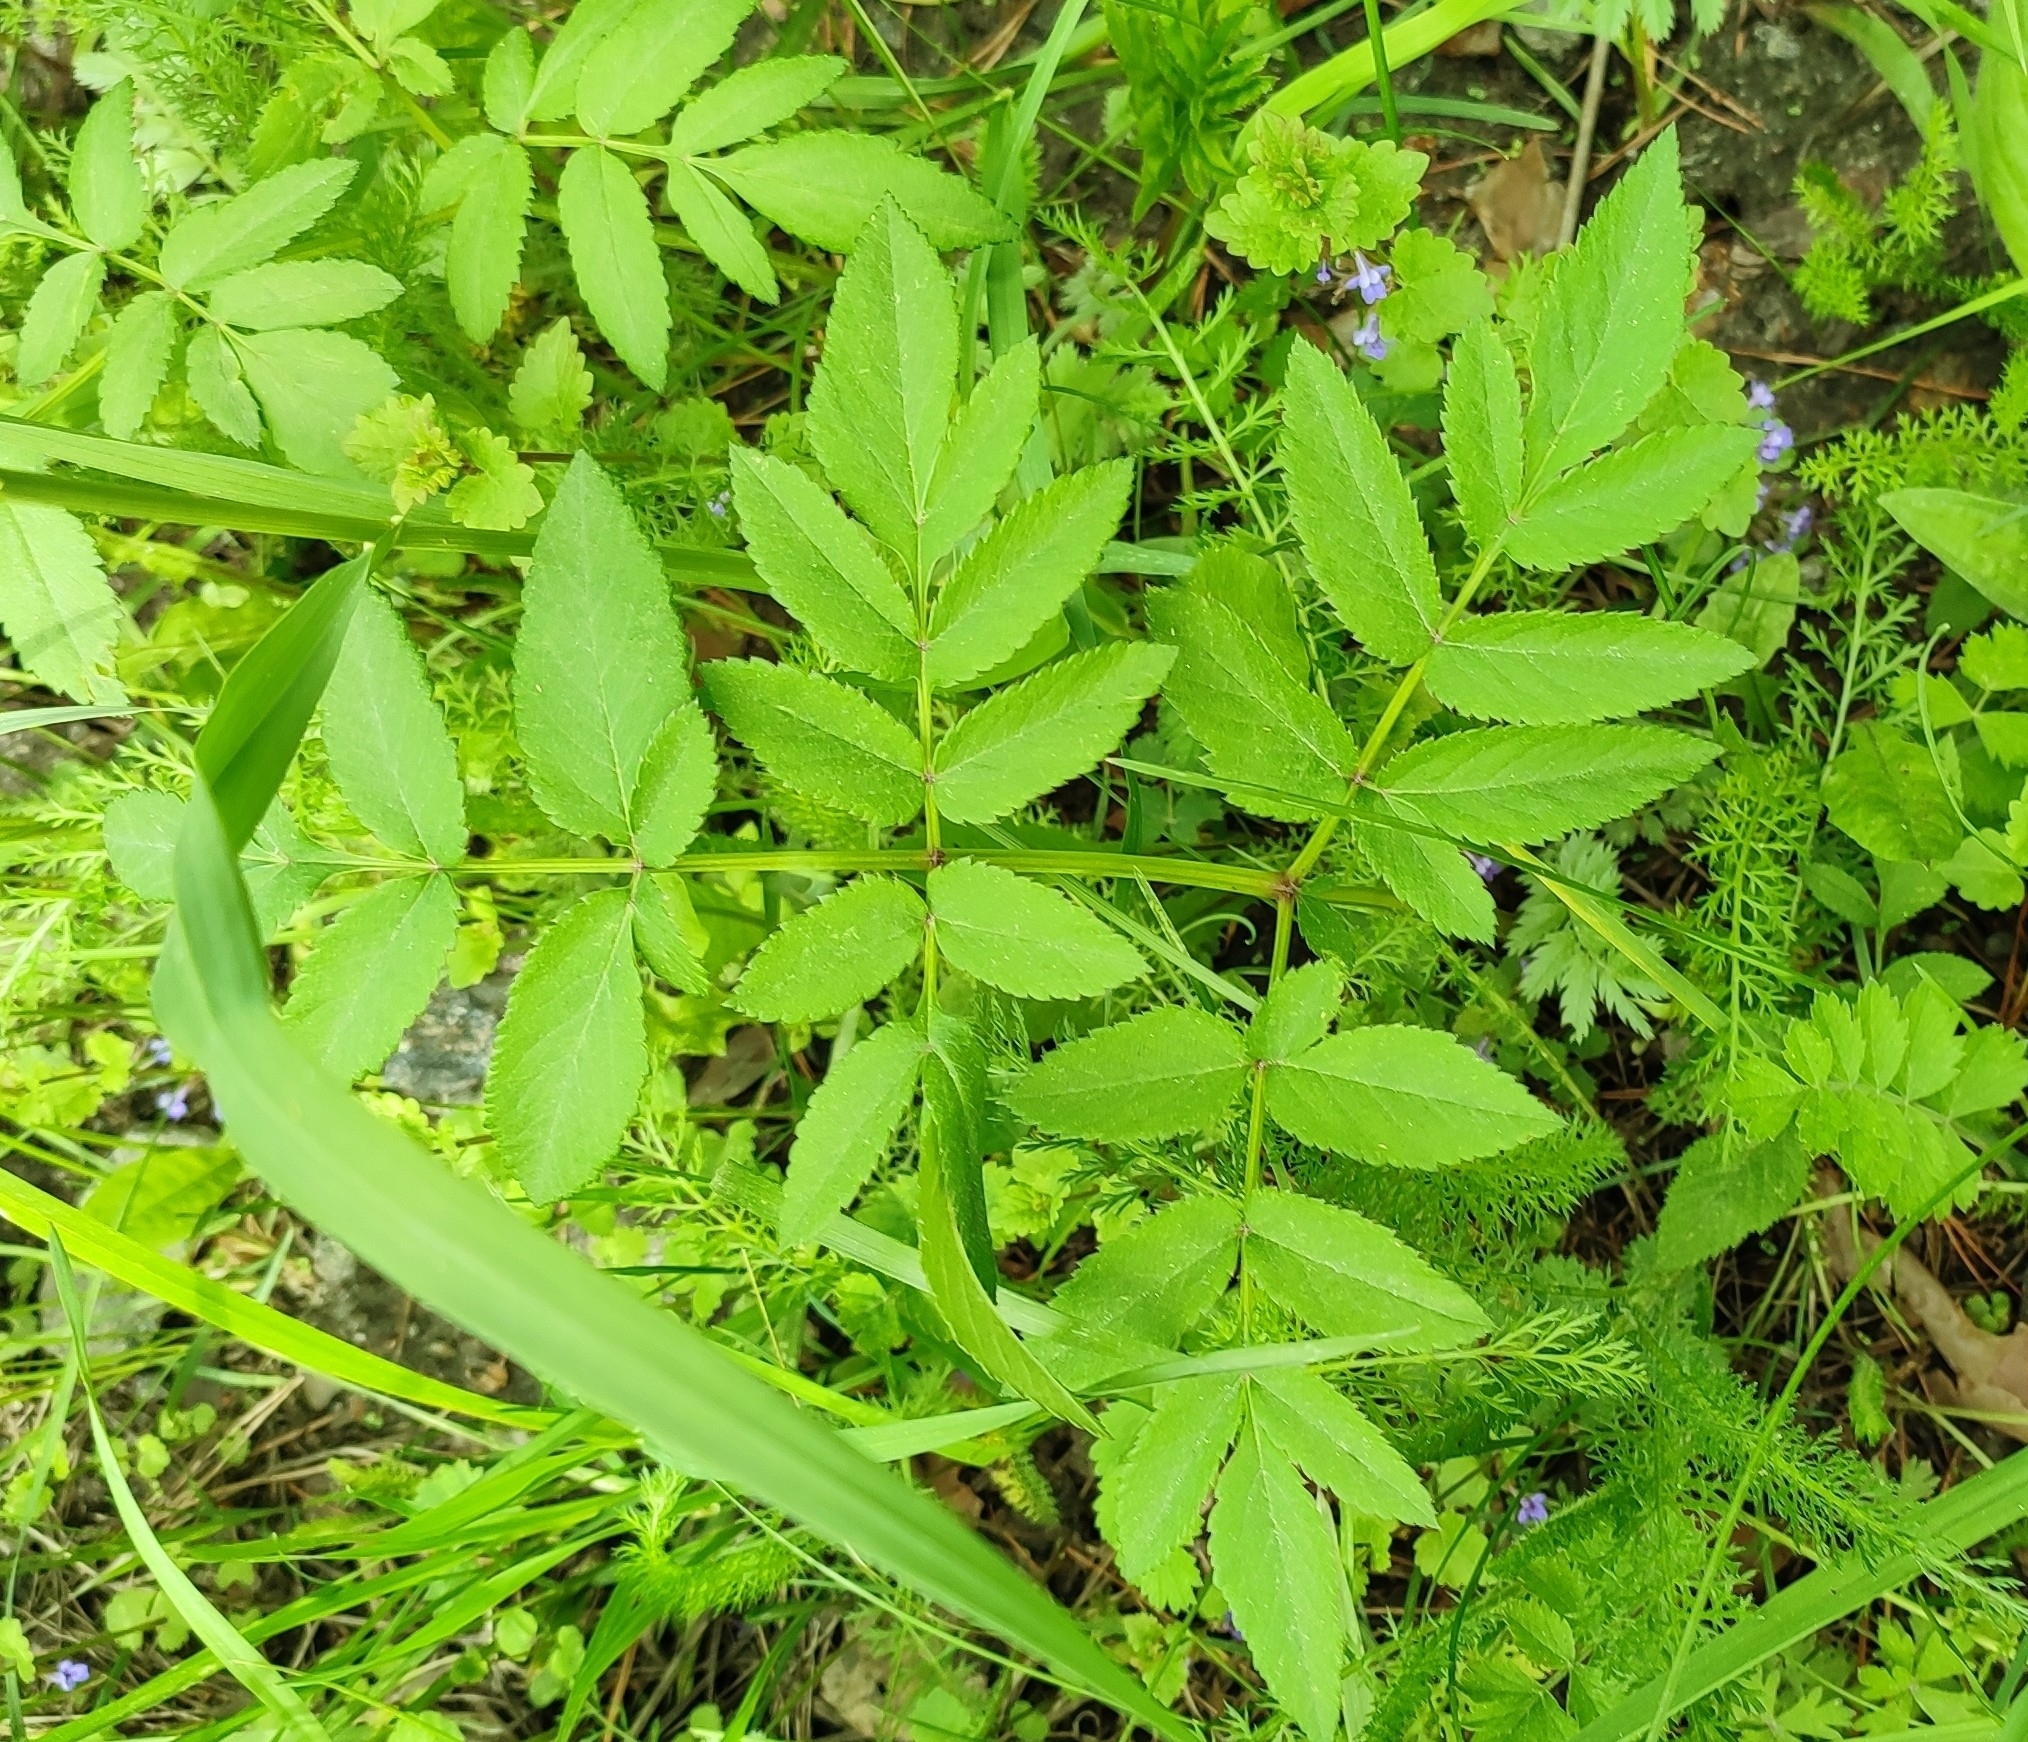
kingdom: Plantae
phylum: Tracheophyta
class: Magnoliopsida
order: Apiales
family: Apiaceae
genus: Angelica
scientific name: Angelica sylvestris
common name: Wild angelica
